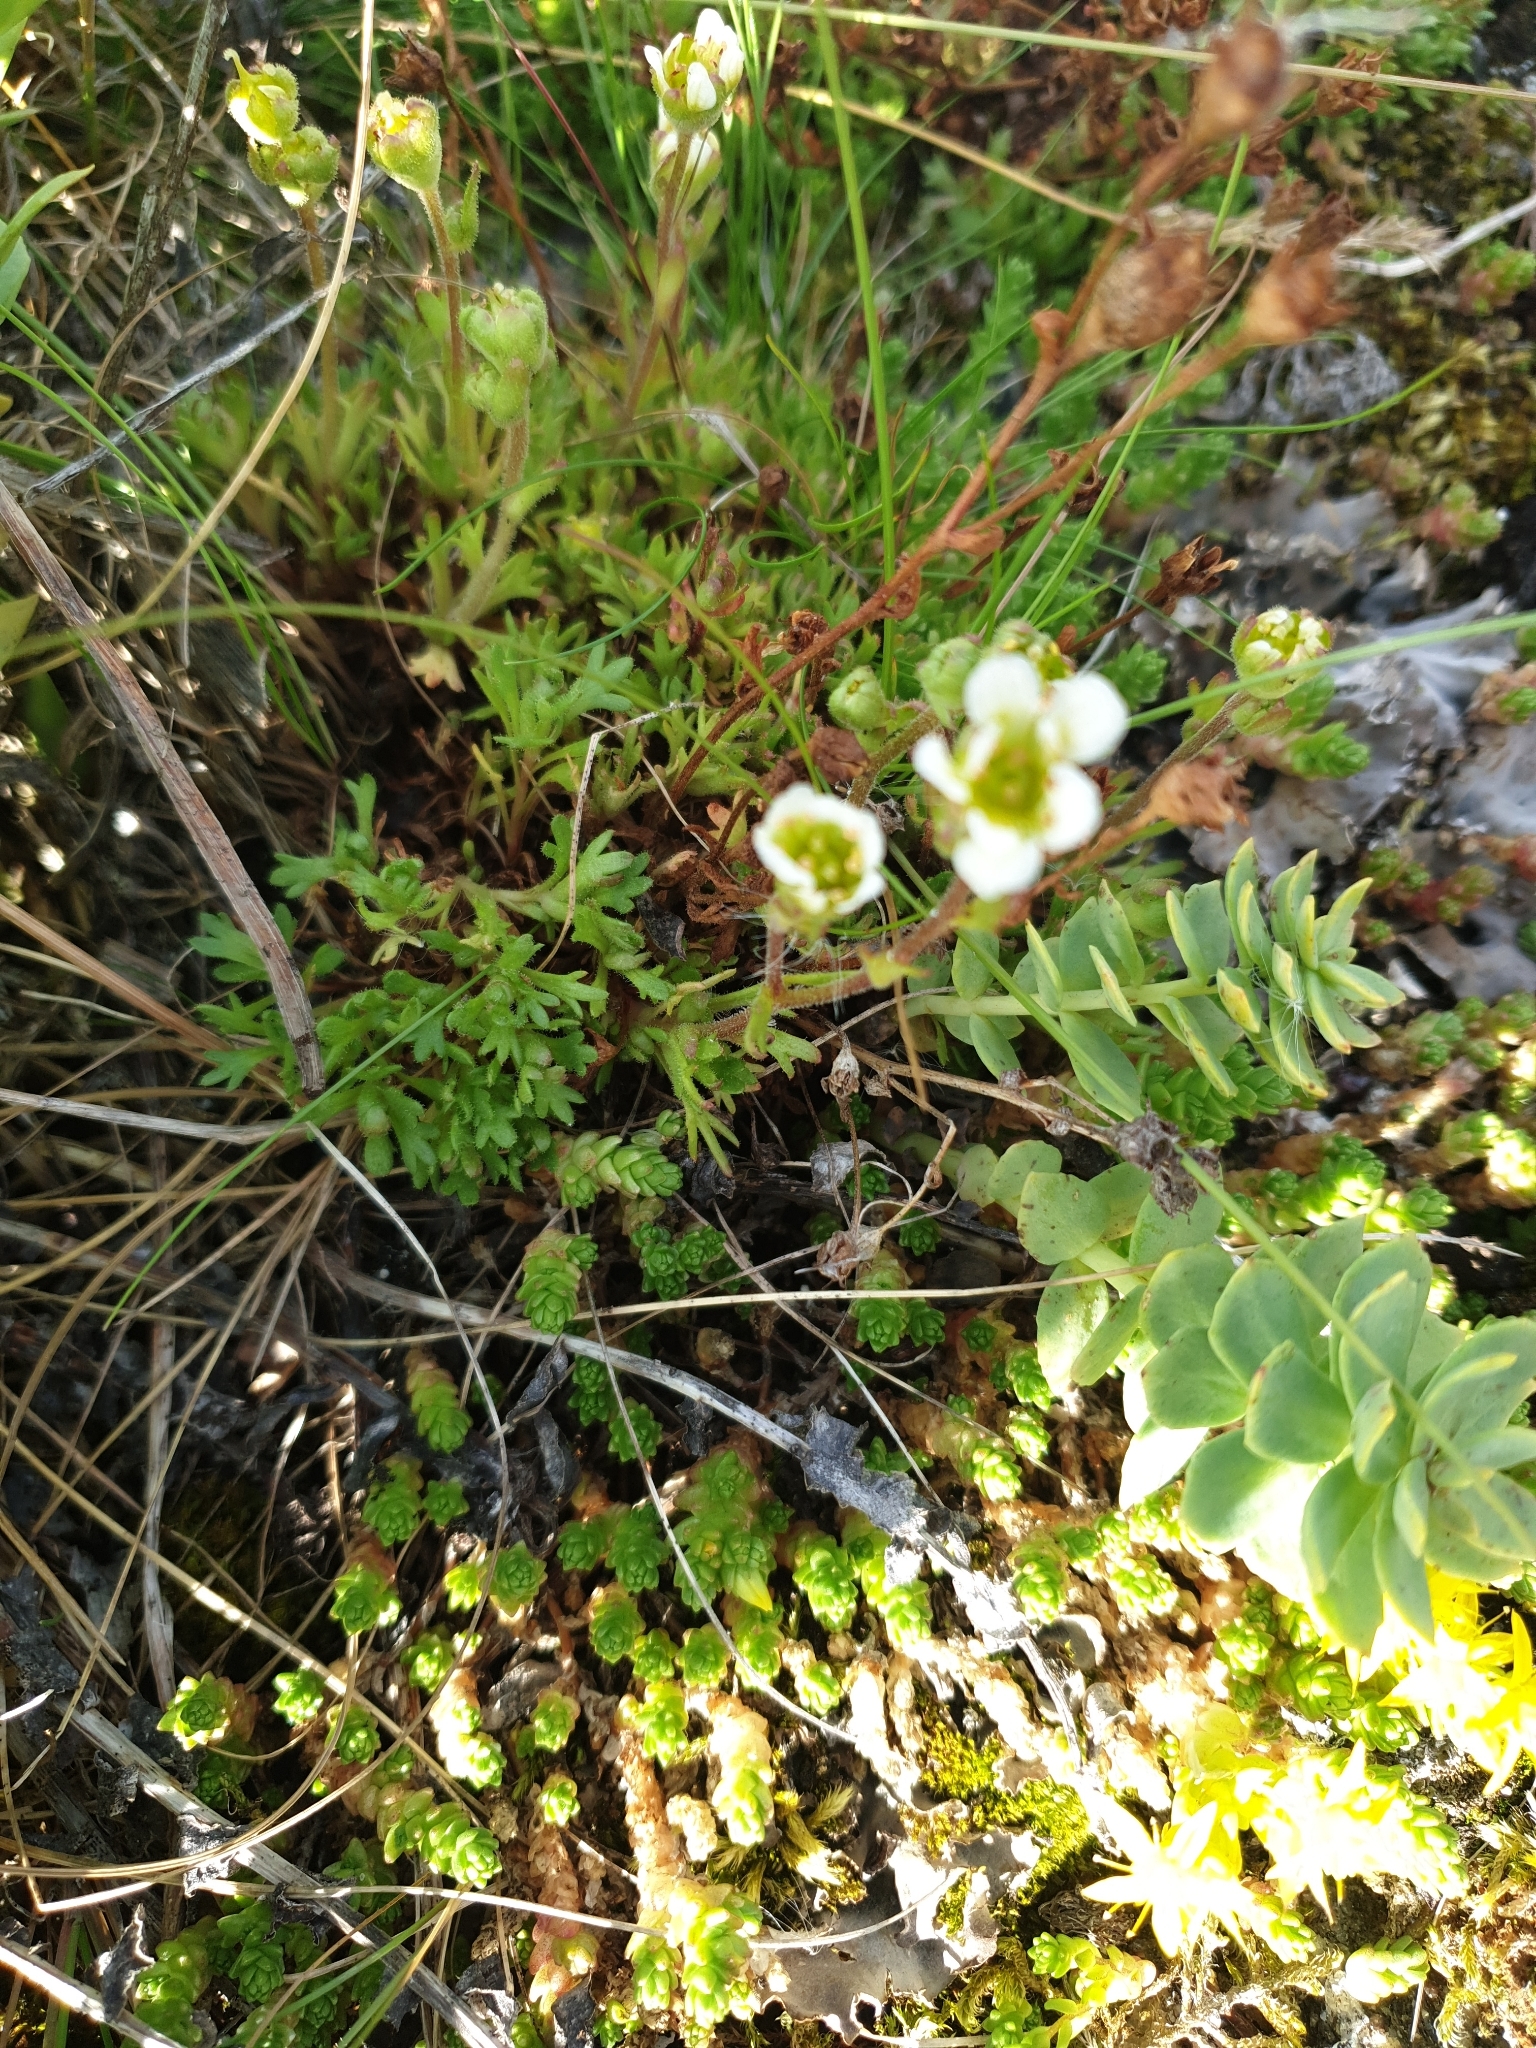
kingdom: Plantae
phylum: Tracheophyta
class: Magnoliopsida
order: Saxifragales
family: Saxifragaceae
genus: Saxifraga
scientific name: Saxifraga cespitosa
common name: Tufted saxifrage
